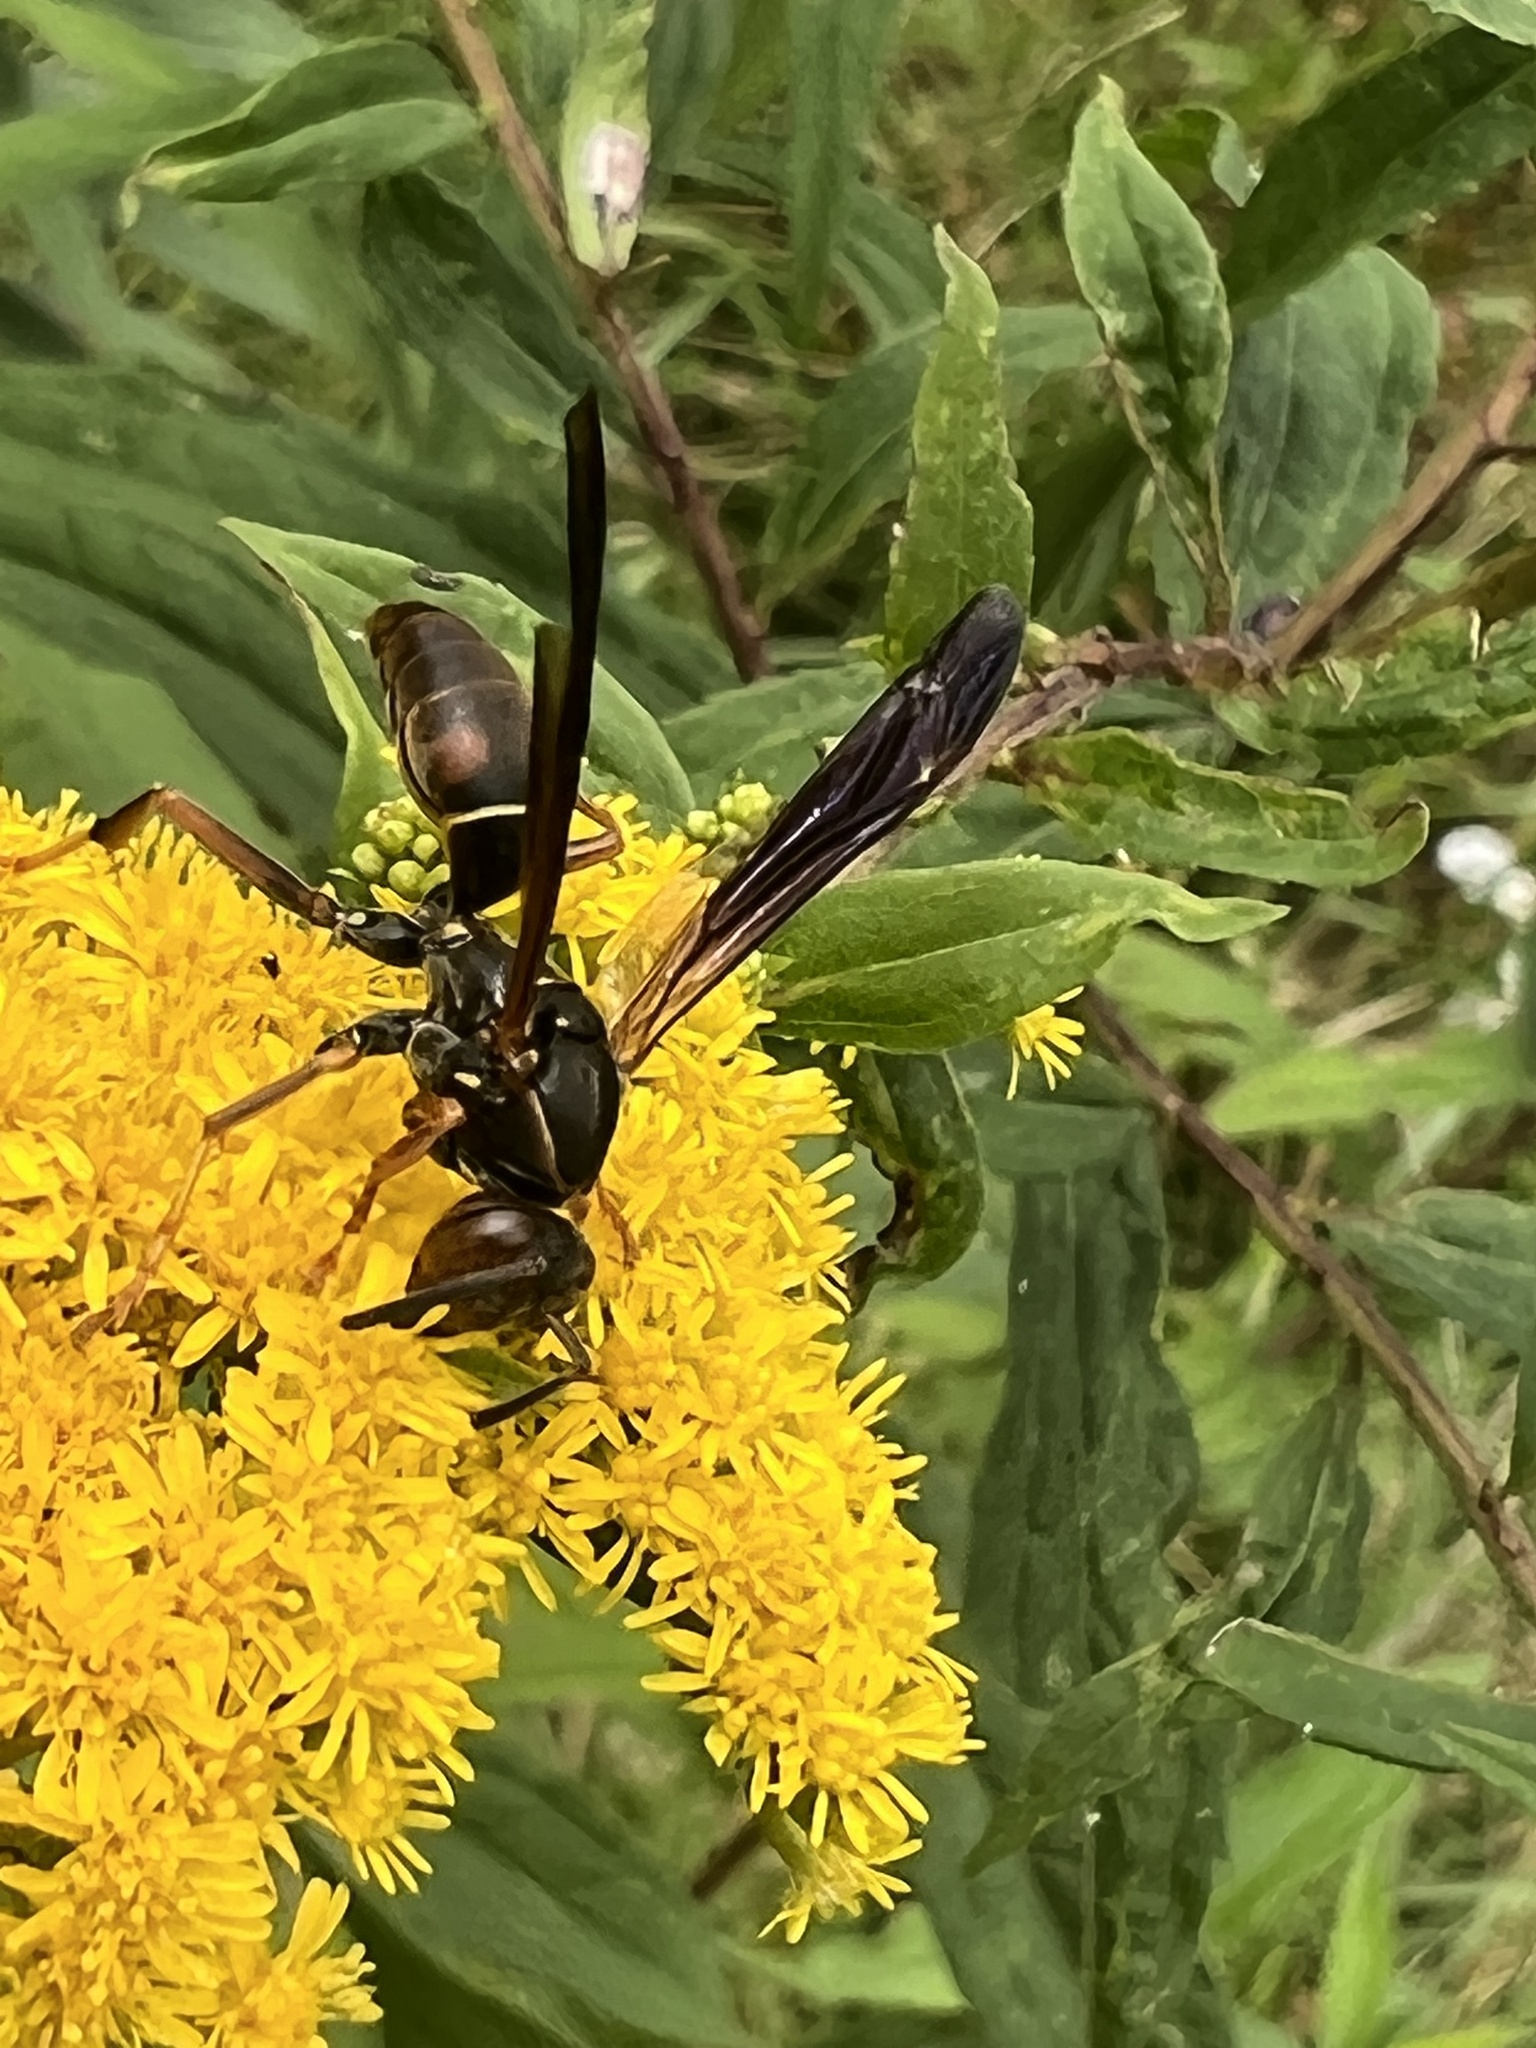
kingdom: Animalia
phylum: Arthropoda
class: Insecta
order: Hymenoptera
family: Eumenidae
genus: Polistes
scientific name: Polistes fuscatus
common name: Dark paper wasp
